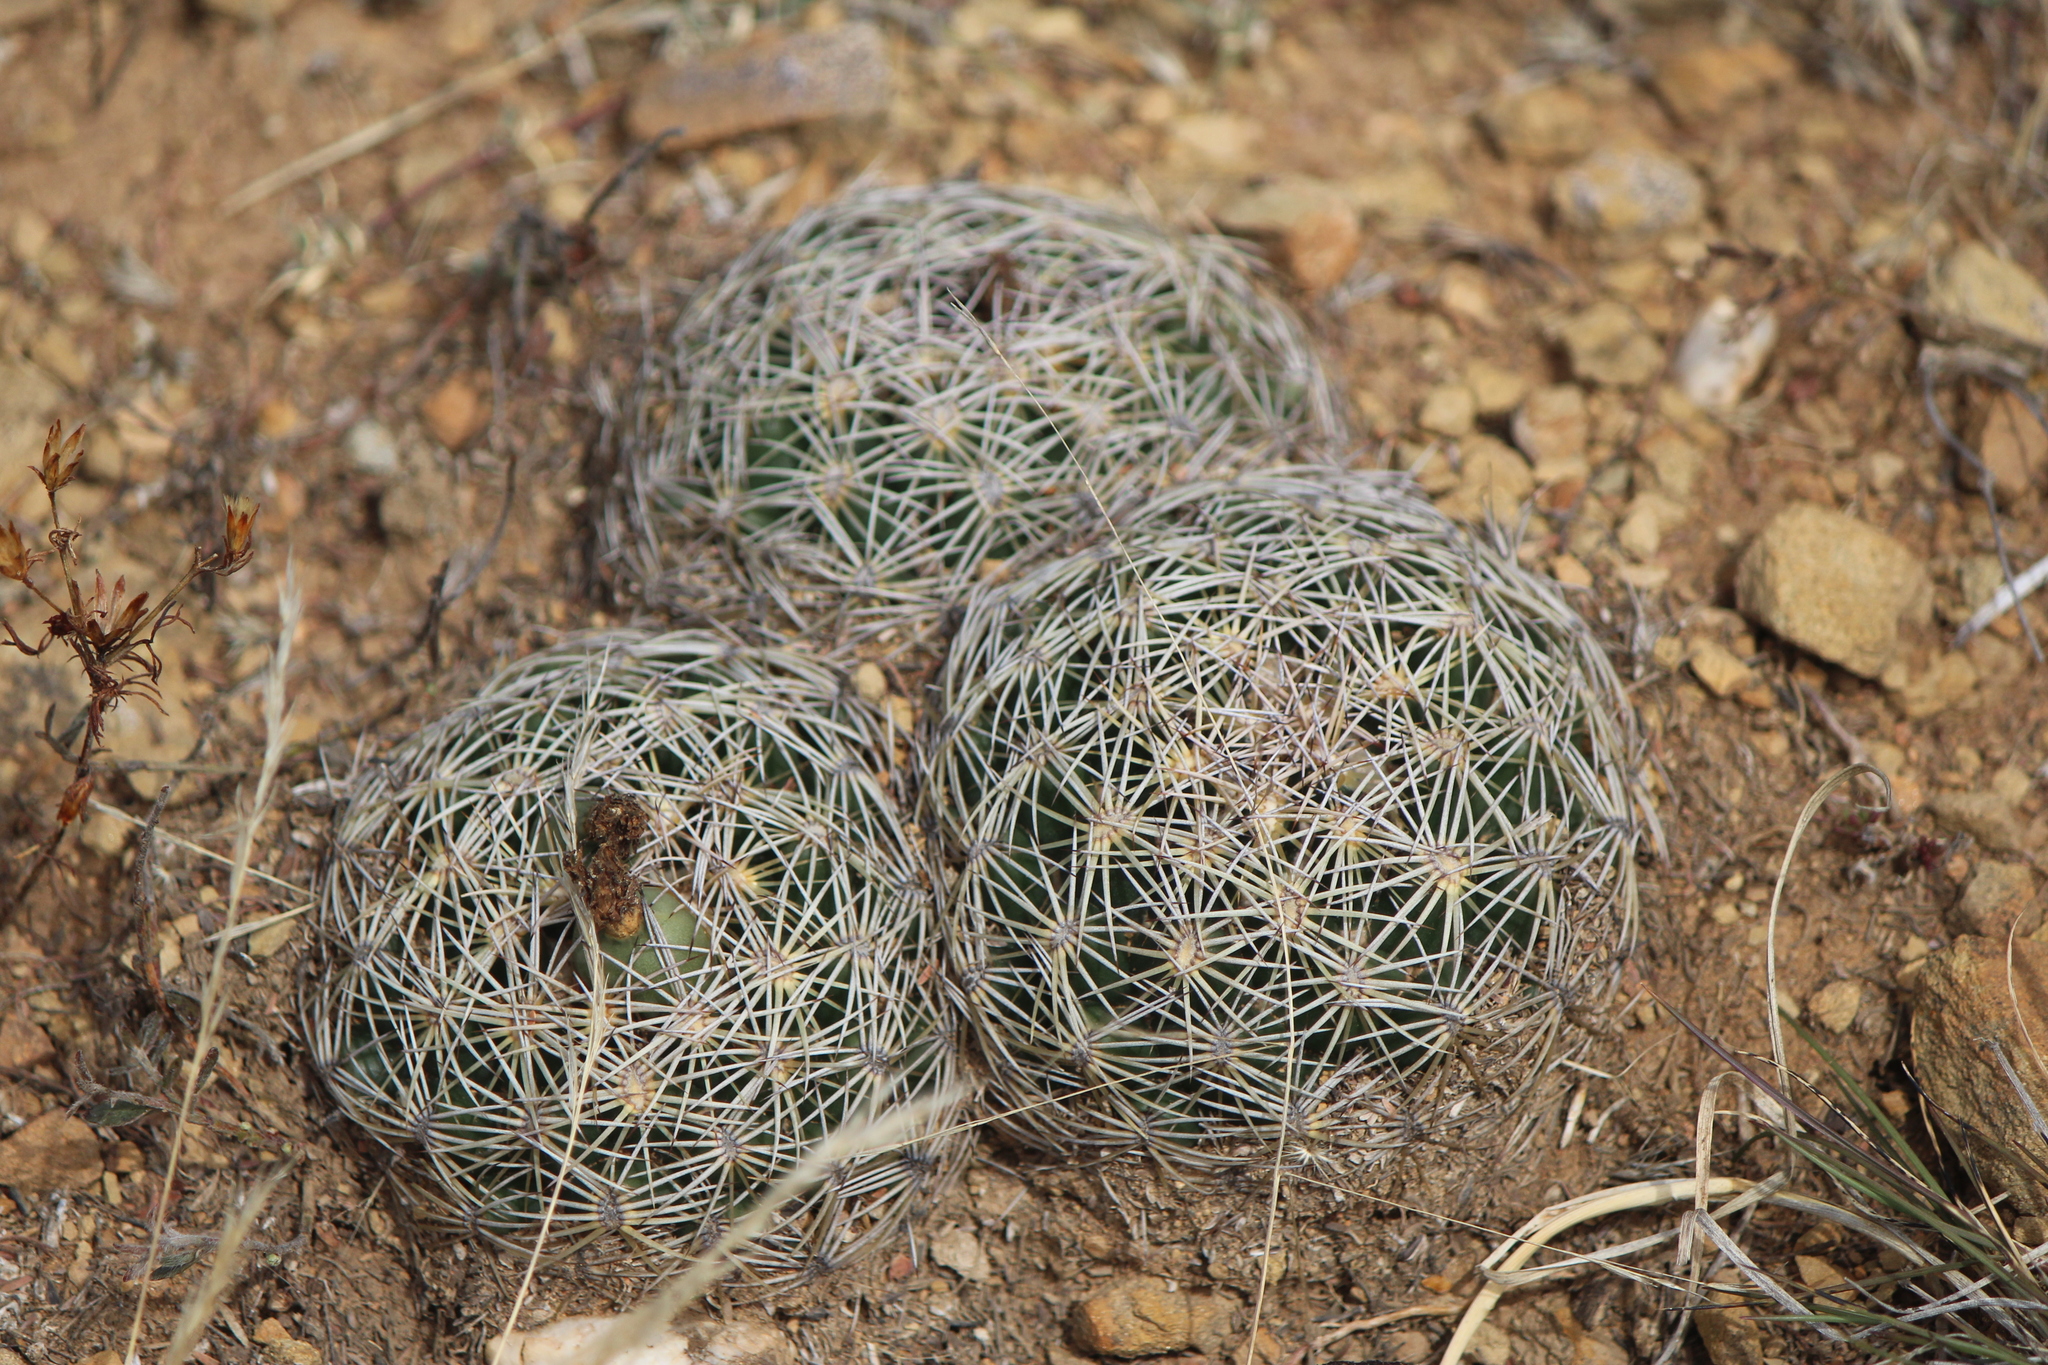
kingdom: Plantae
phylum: Tracheophyta
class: Magnoliopsida
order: Caryophyllales
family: Cactaceae
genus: Coryphantha
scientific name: Coryphantha cornifera
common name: Rhinoceros cactus
